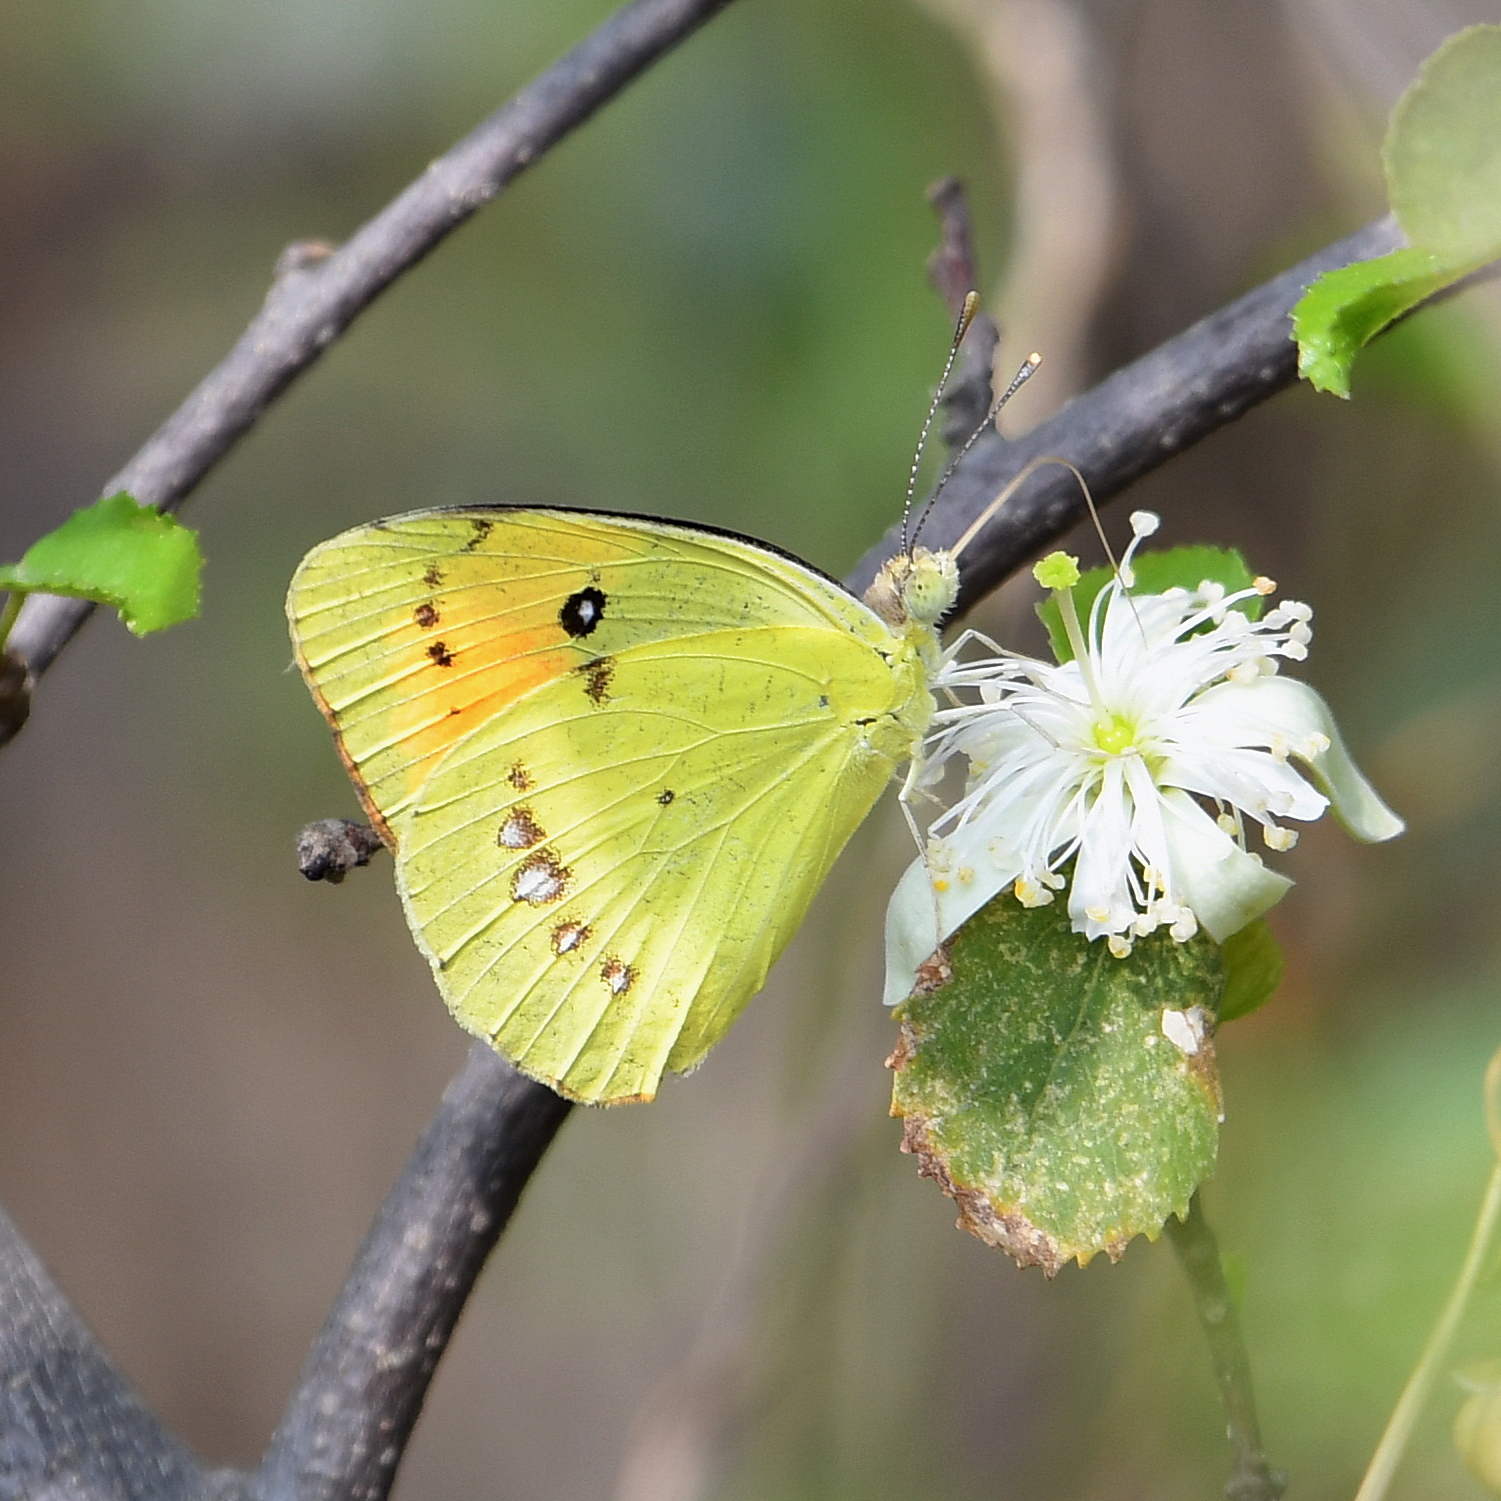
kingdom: Animalia
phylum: Arthropoda
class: Insecta
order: Lepidoptera
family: Pieridae
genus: Ixias
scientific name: Ixias pyrene
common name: Yellow orange tip
